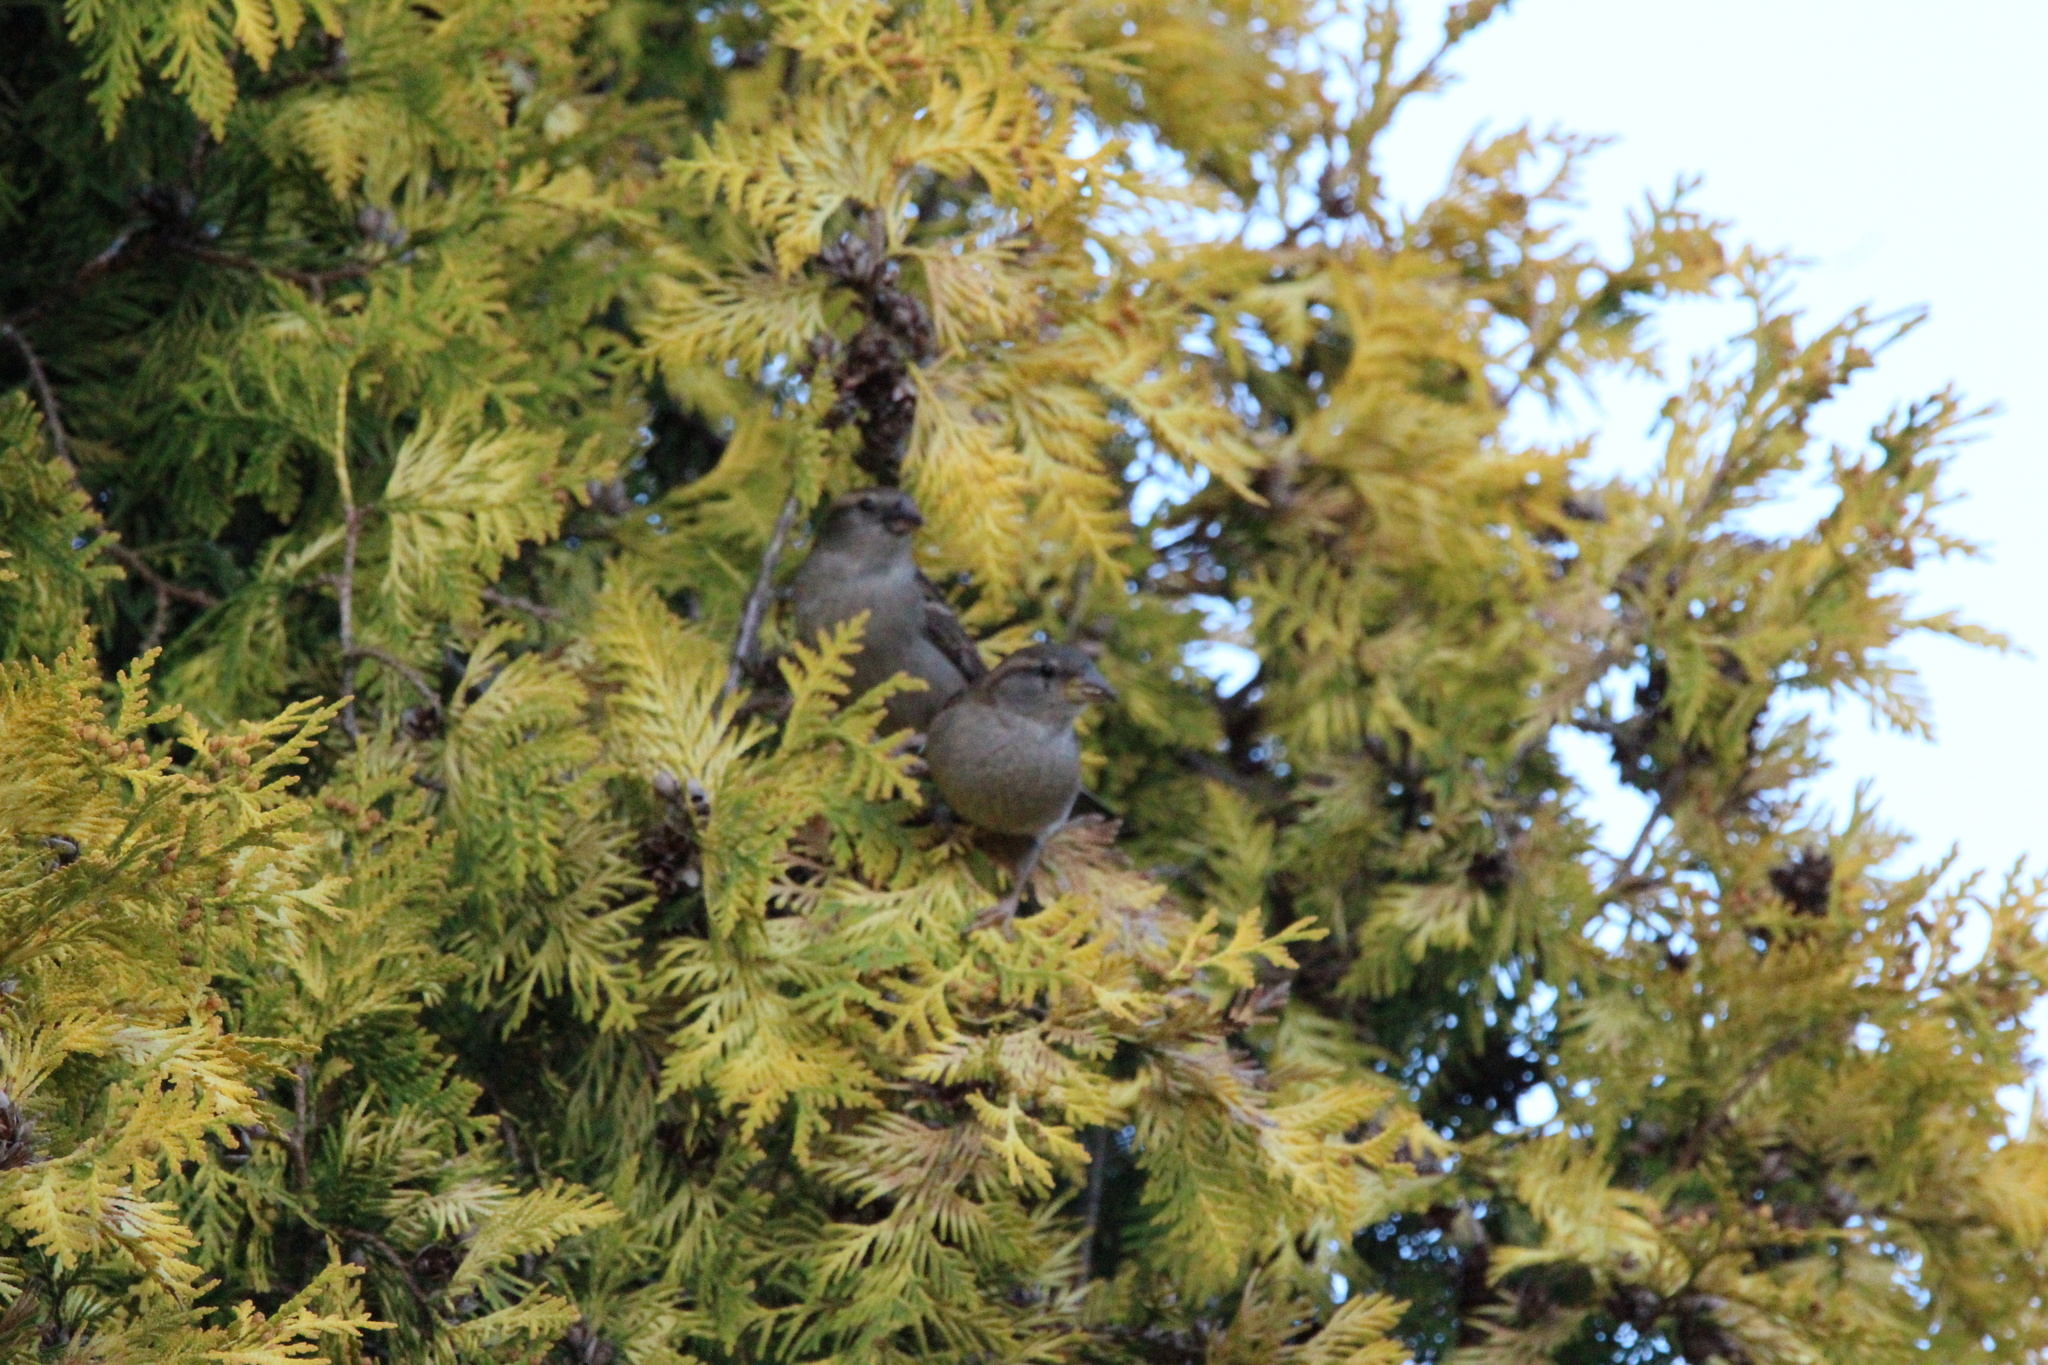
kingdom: Animalia
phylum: Chordata
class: Aves
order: Passeriformes
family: Passeridae
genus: Passer
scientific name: Passer domesticus
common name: House sparrow
